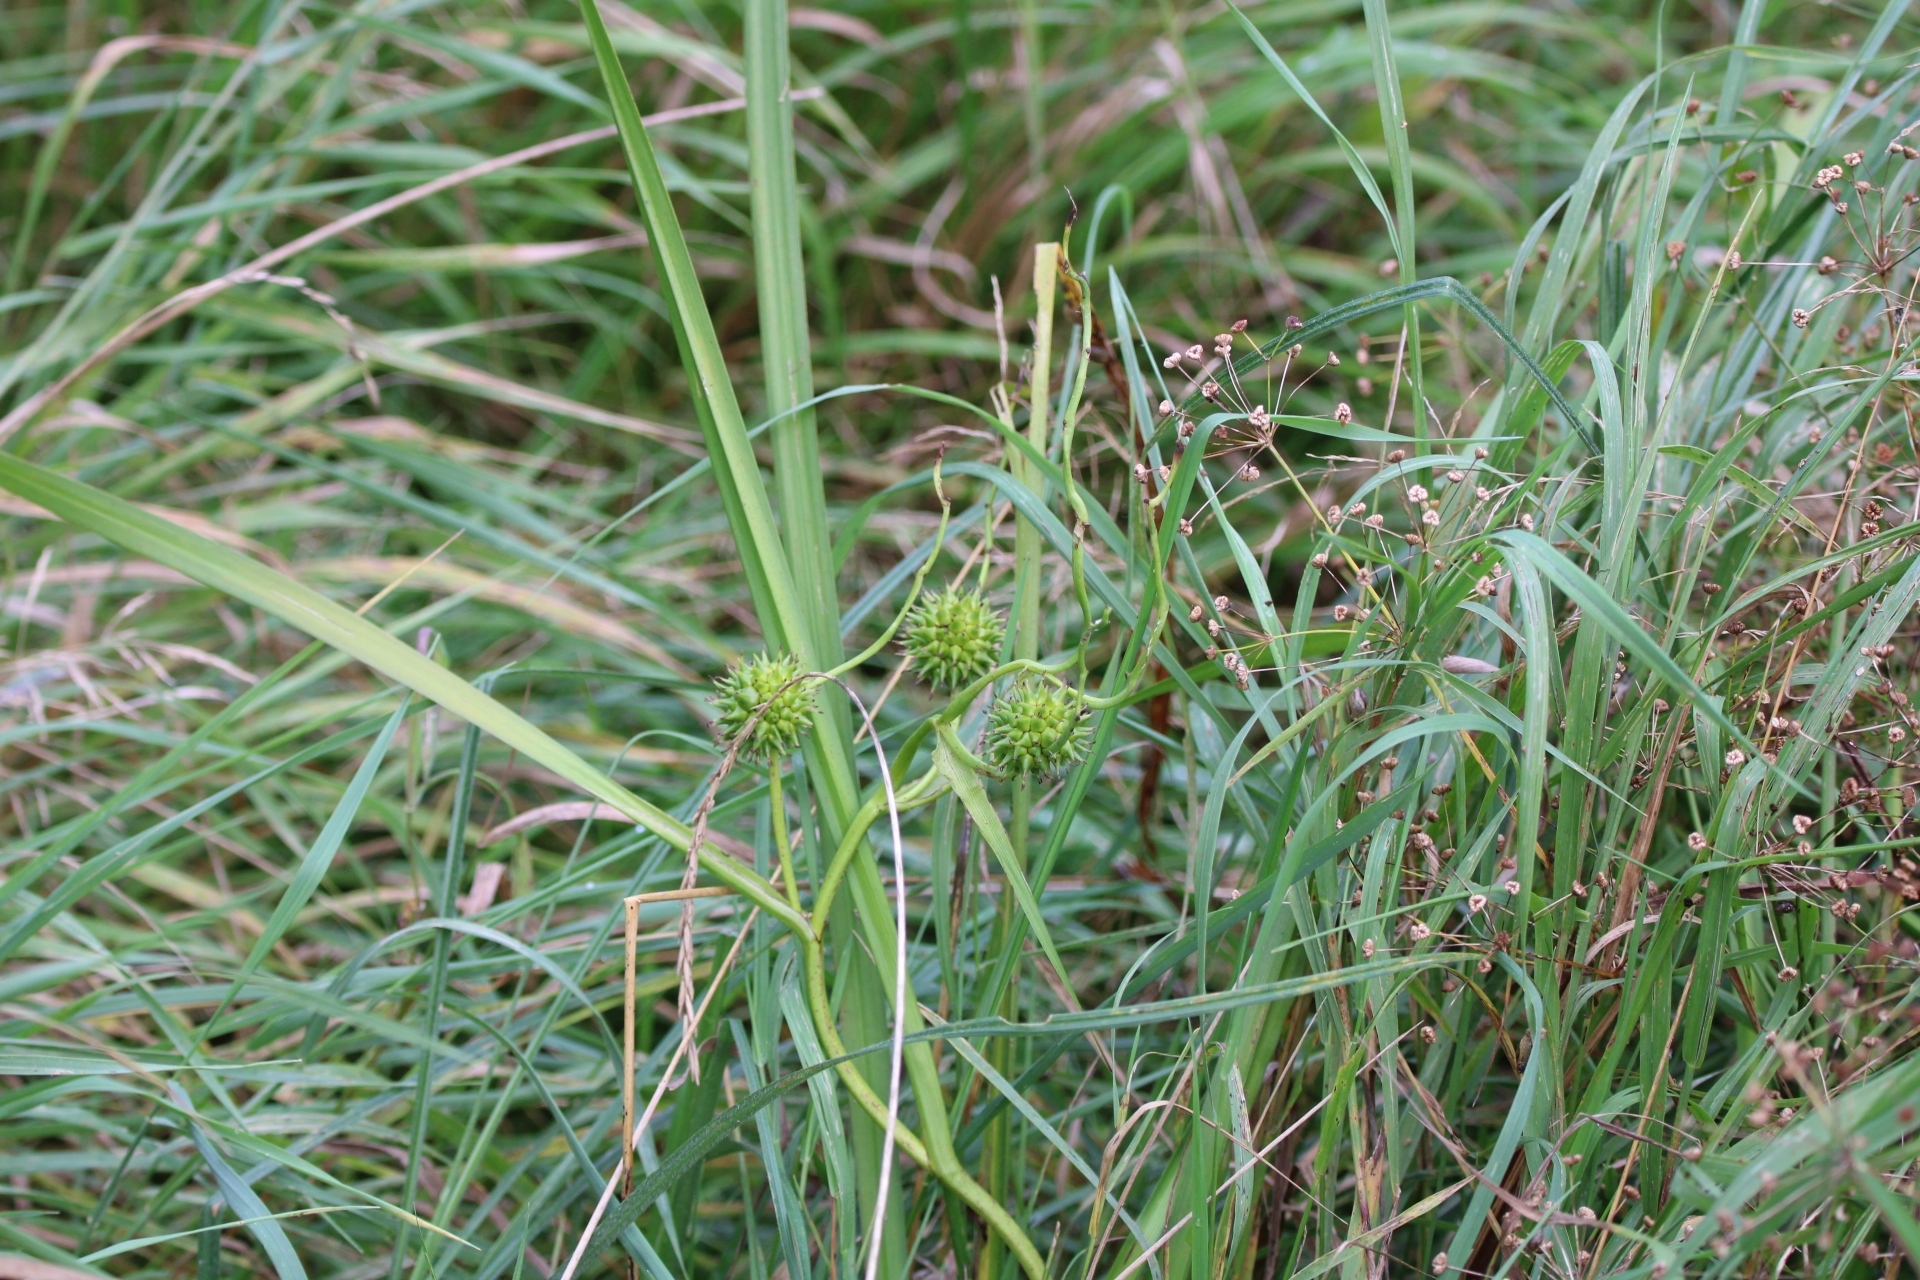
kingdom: Plantae
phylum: Tracheophyta
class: Liliopsida
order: Poales
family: Typhaceae
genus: Sparganium
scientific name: Sparganium erectum
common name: Branched bur-reed
